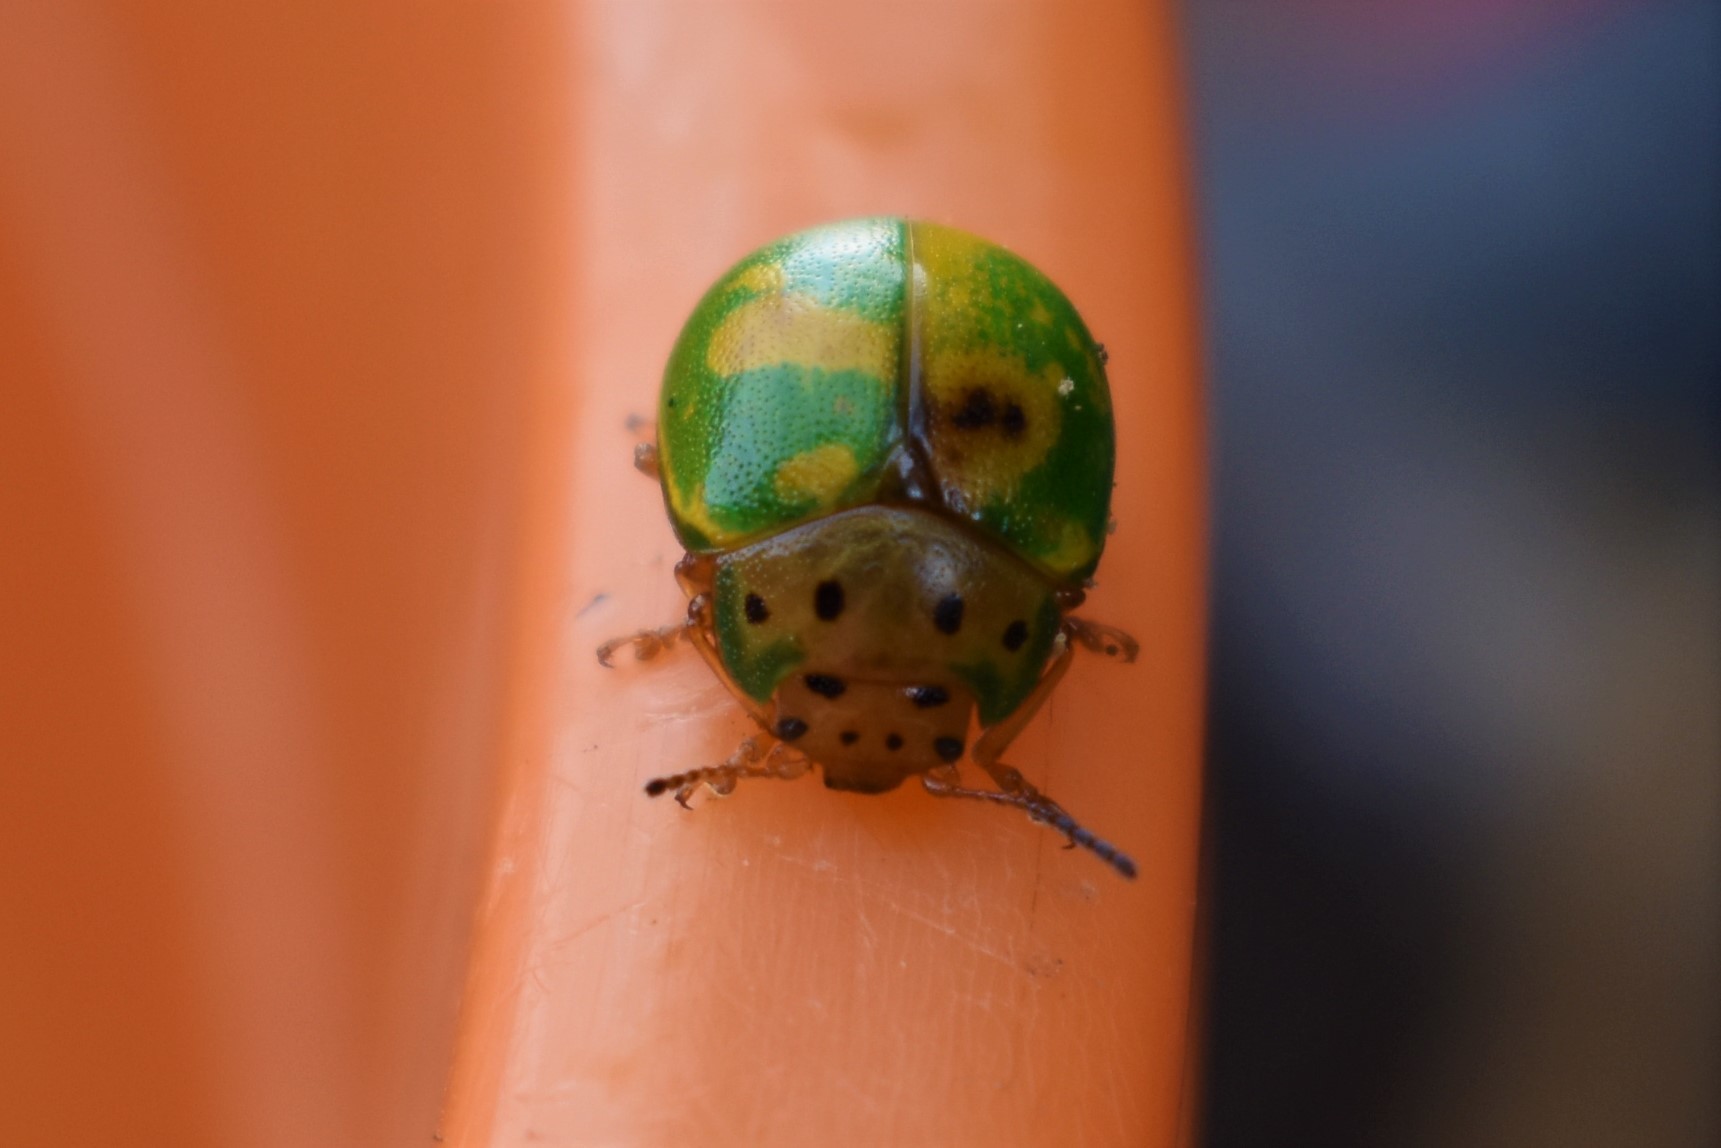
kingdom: Animalia
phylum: Arthropoda
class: Insecta
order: Coleoptera
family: Chrysomelidae
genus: Platyphora
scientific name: Platyphora
